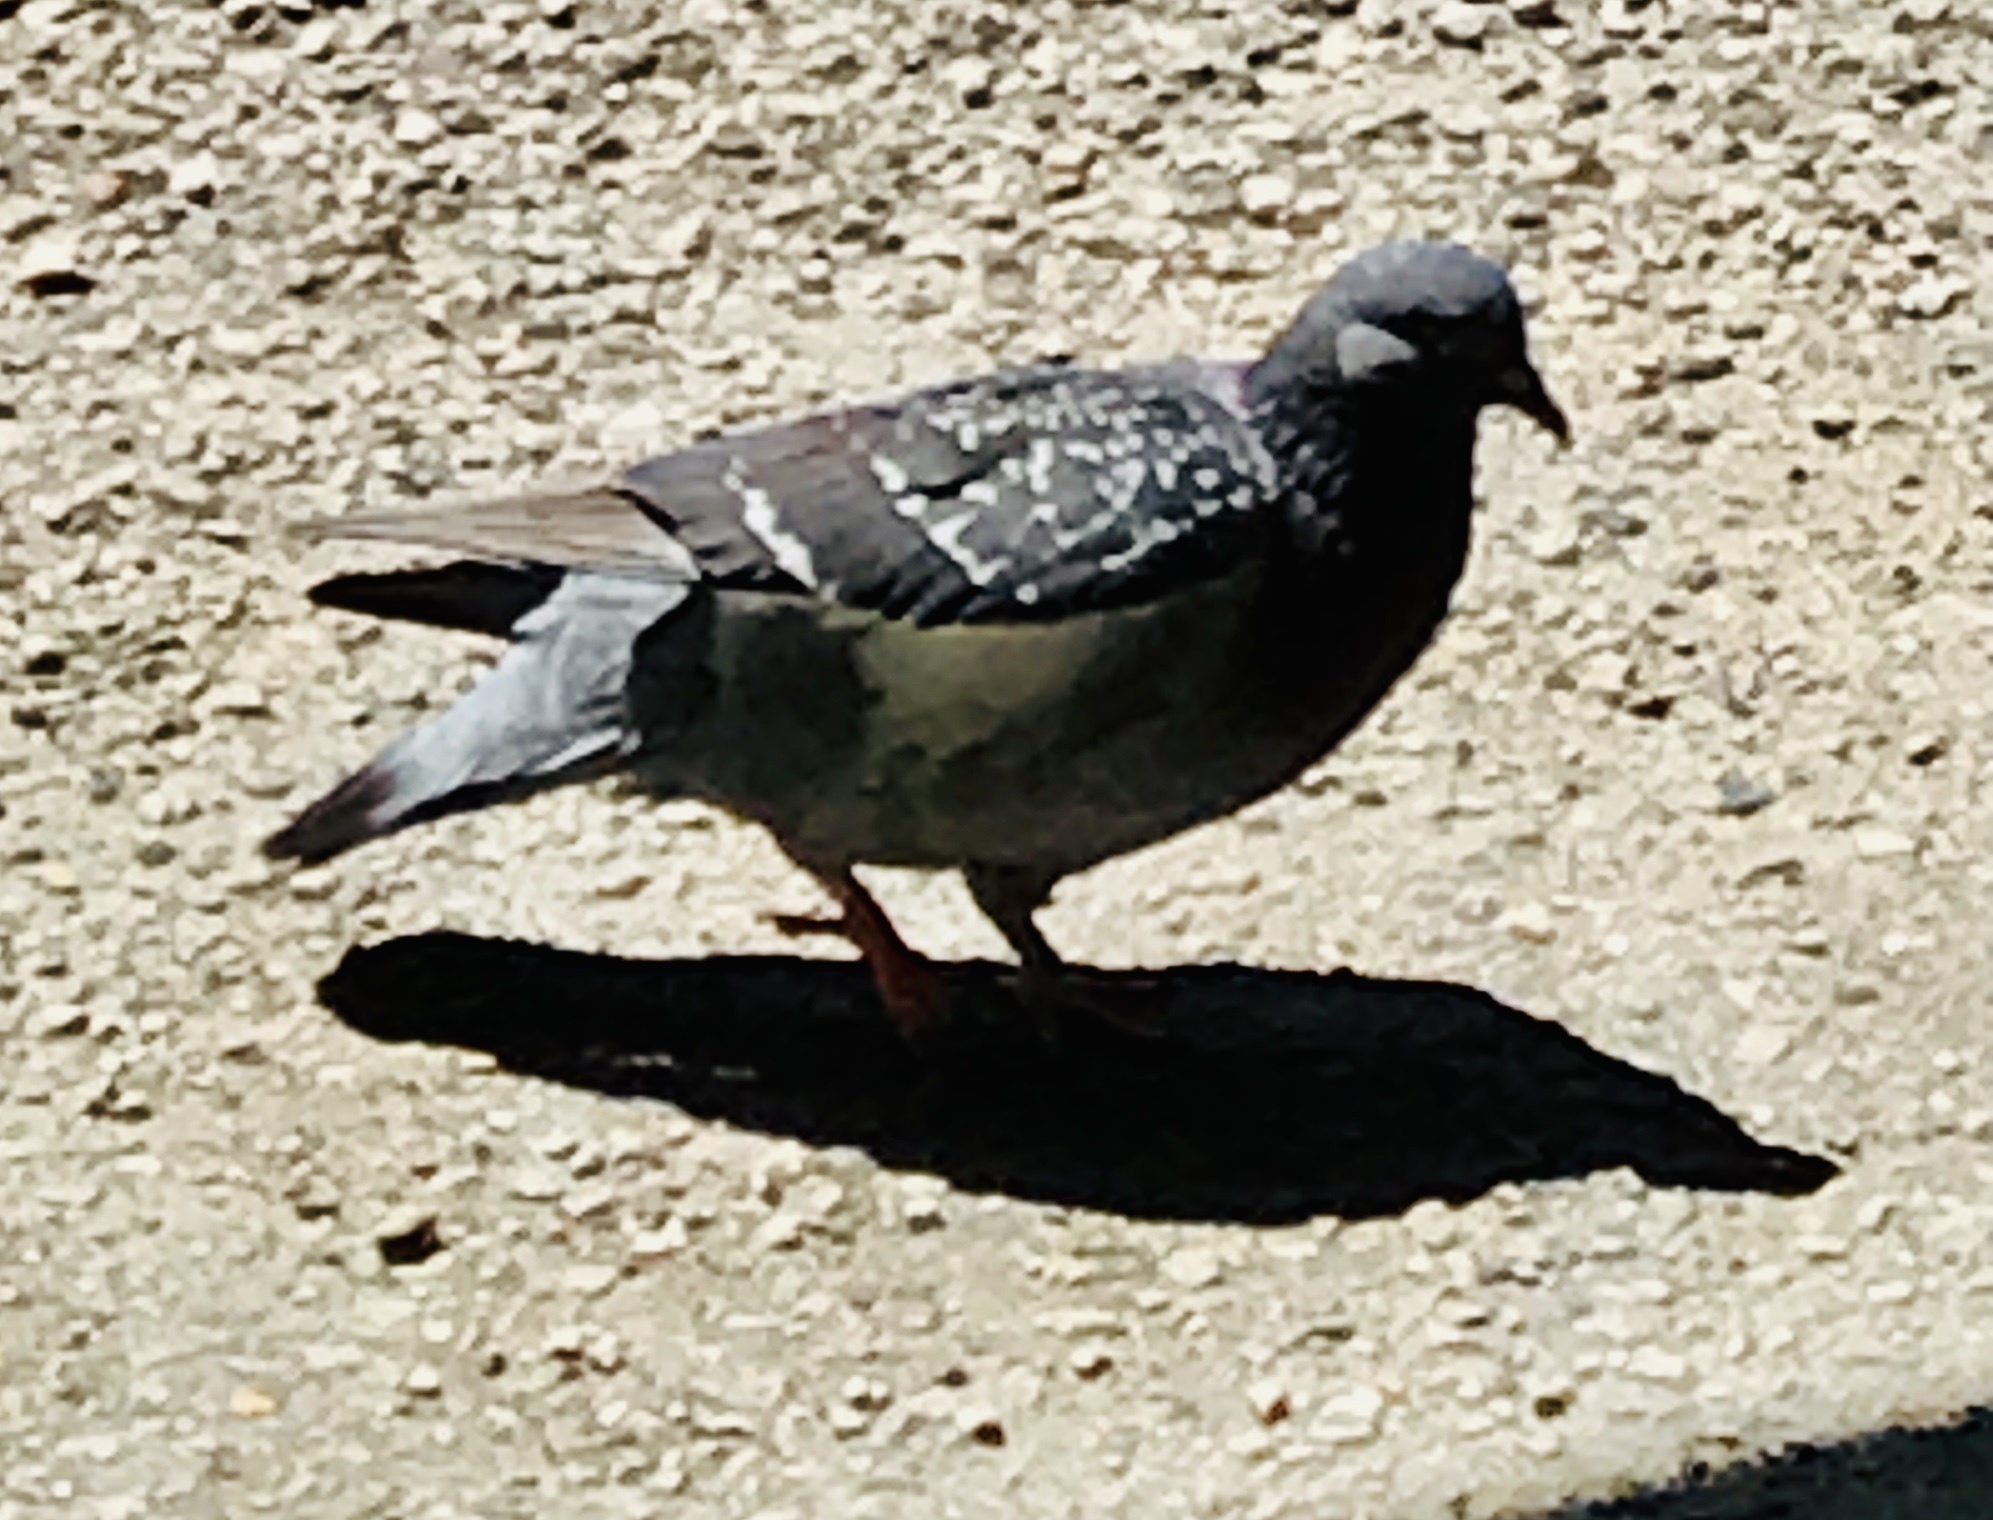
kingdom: Animalia
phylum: Chordata
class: Aves
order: Columbiformes
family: Columbidae
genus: Columba
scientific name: Columba livia
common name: Rock pigeon
